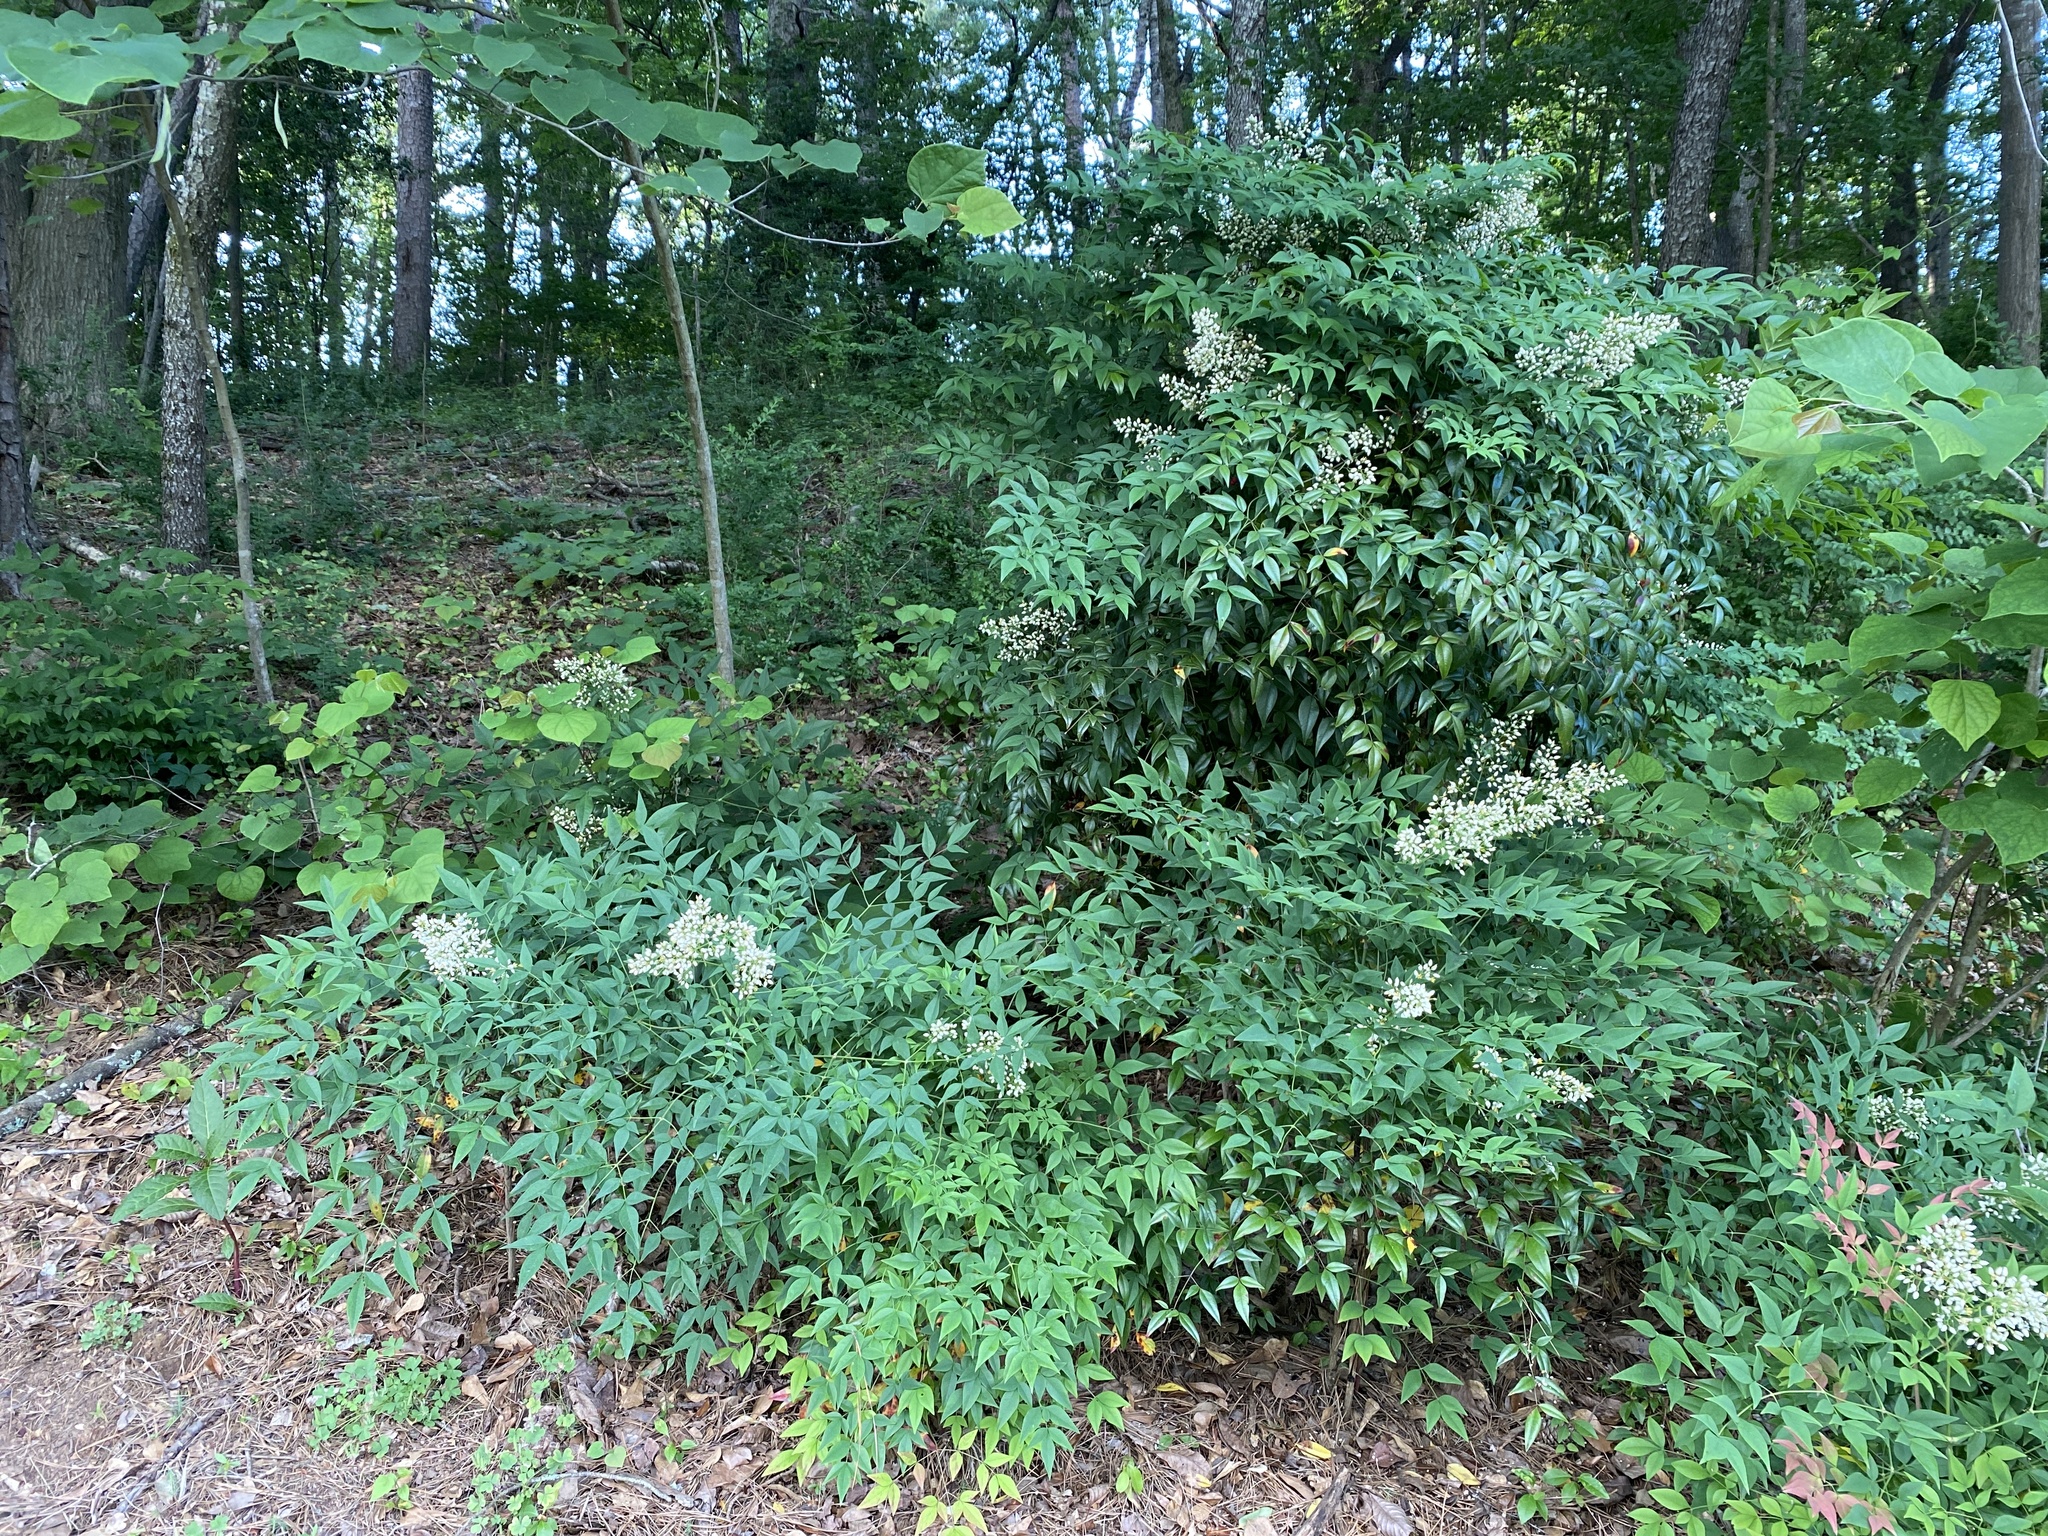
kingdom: Plantae
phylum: Tracheophyta
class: Magnoliopsida
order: Ranunculales
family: Berberidaceae
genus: Nandina
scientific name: Nandina domestica
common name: Sacred bamboo
